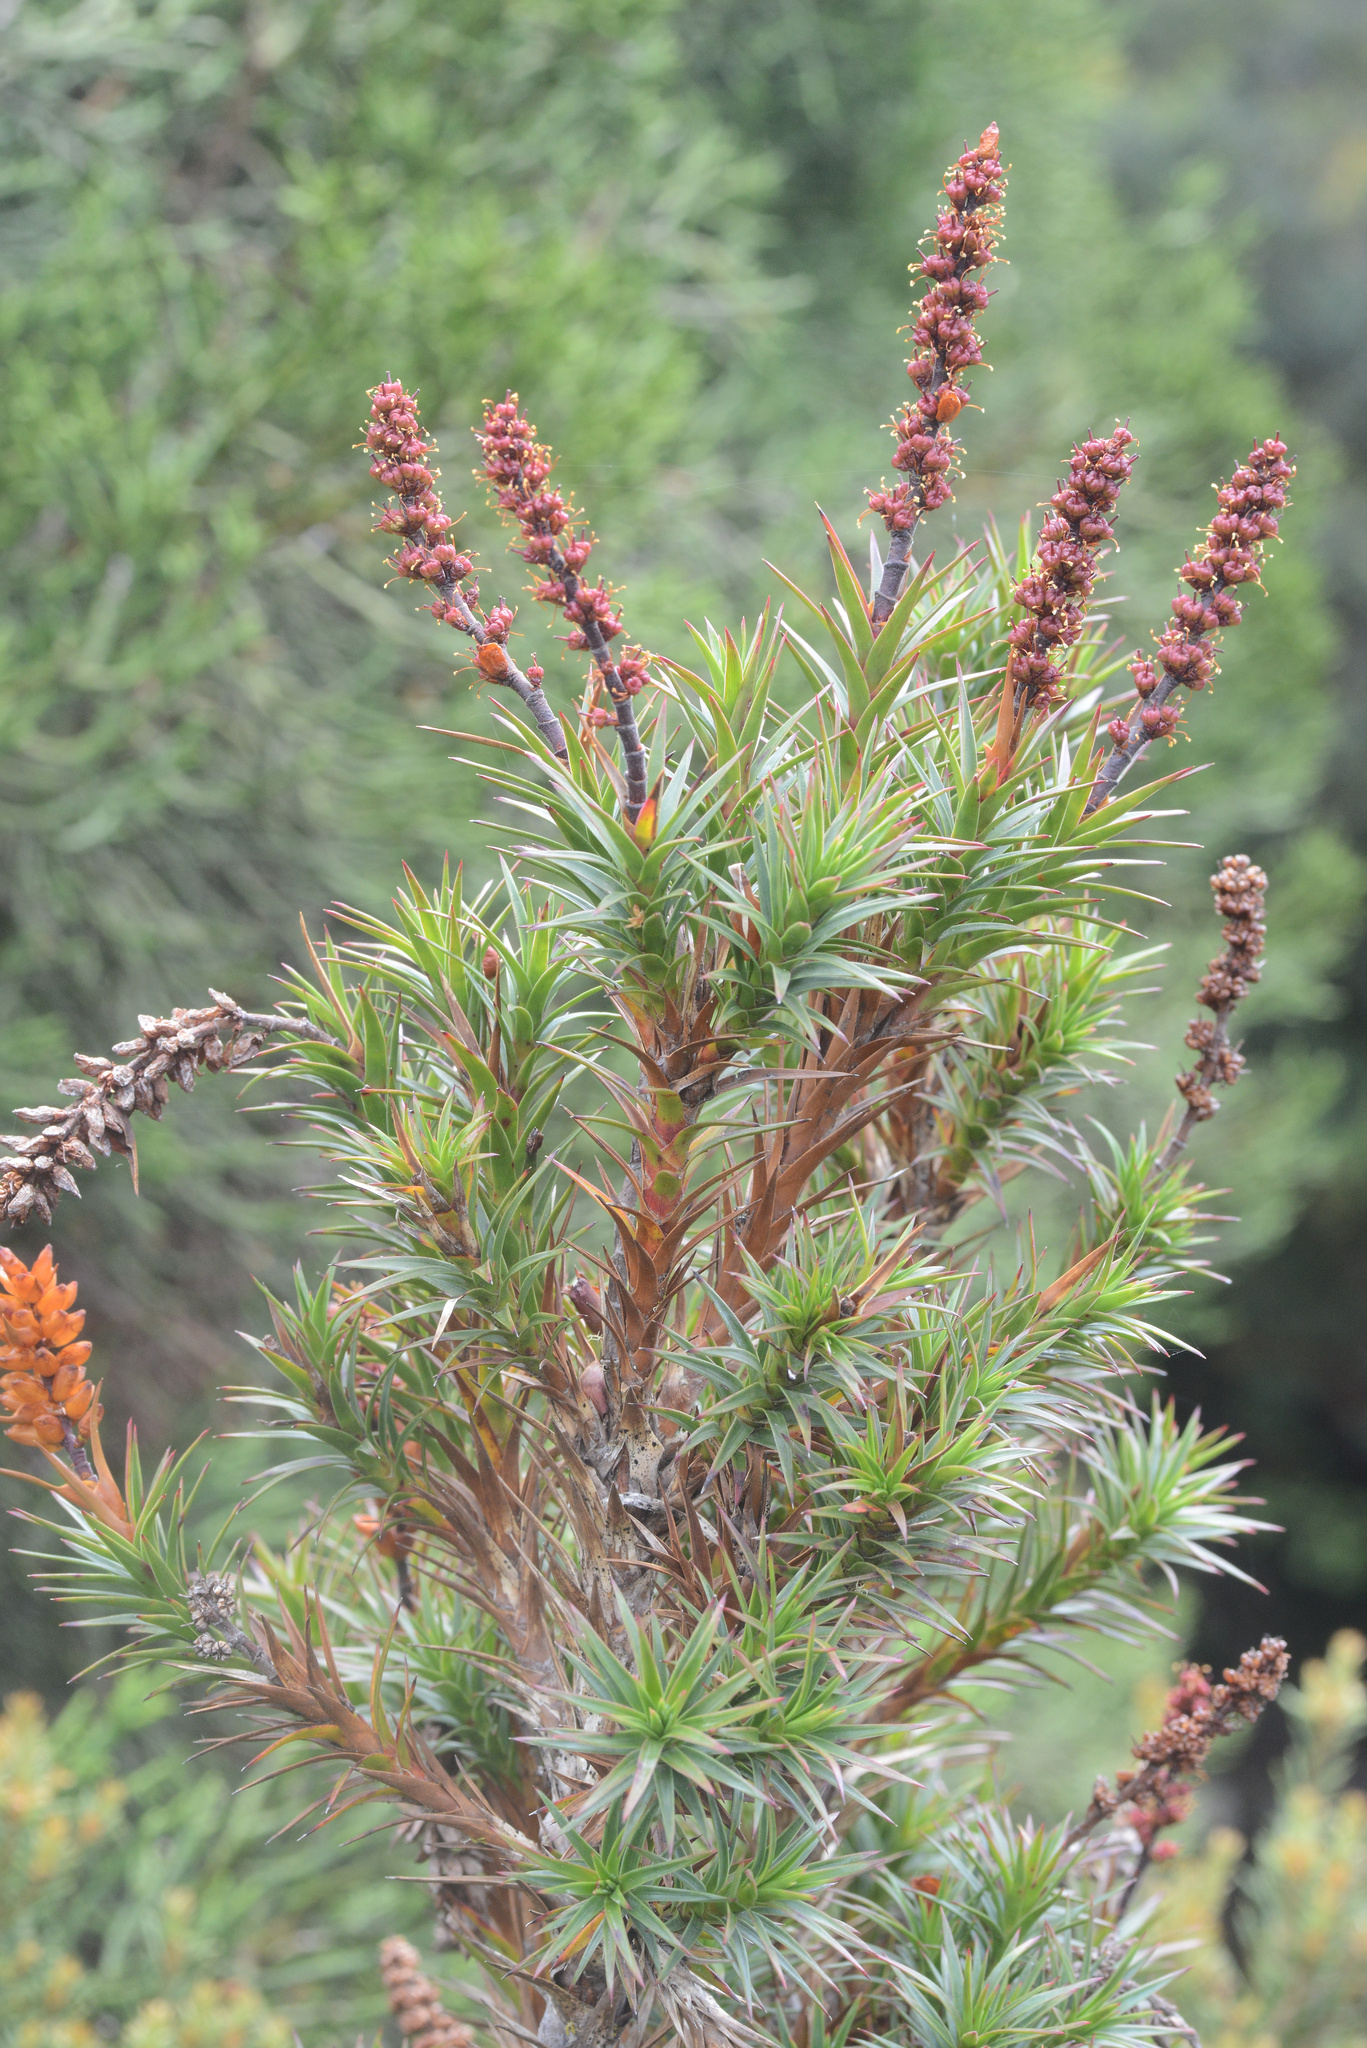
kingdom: Plantae
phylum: Tracheophyta
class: Magnoliopsida
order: Ericales
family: Ericaceae
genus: Dracophyllum
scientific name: Dracophyllum persistentifolium
